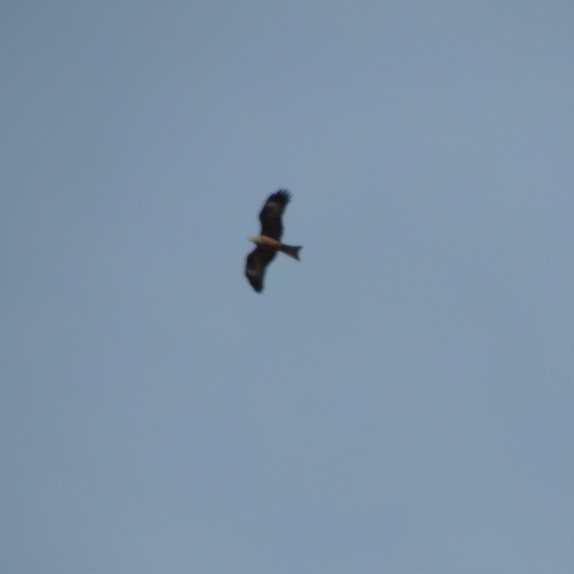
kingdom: Animalia
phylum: Chordata
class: Aves
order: Accipitriformes
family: Accipitridae
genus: Milvus
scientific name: Milvus migrans
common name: Black kite
